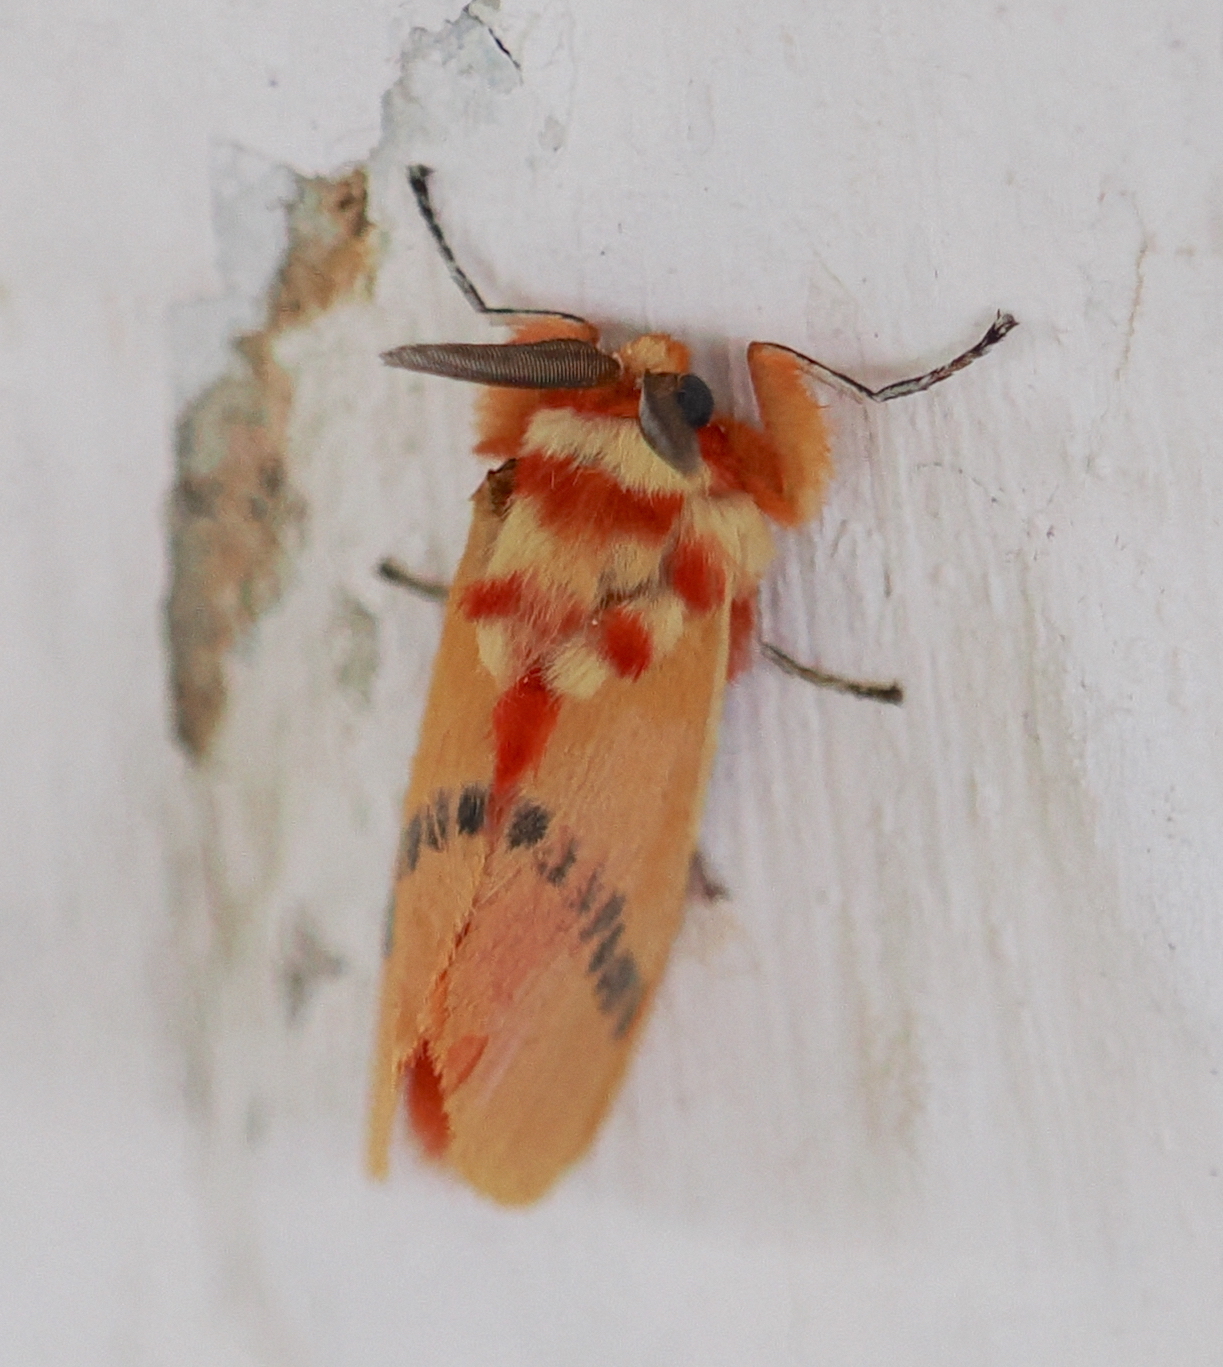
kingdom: Animalia
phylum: Arthropoda
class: Insecta
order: Lepidoptera
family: Megalopygidae
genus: Trosia
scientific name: Trosia tolimata
